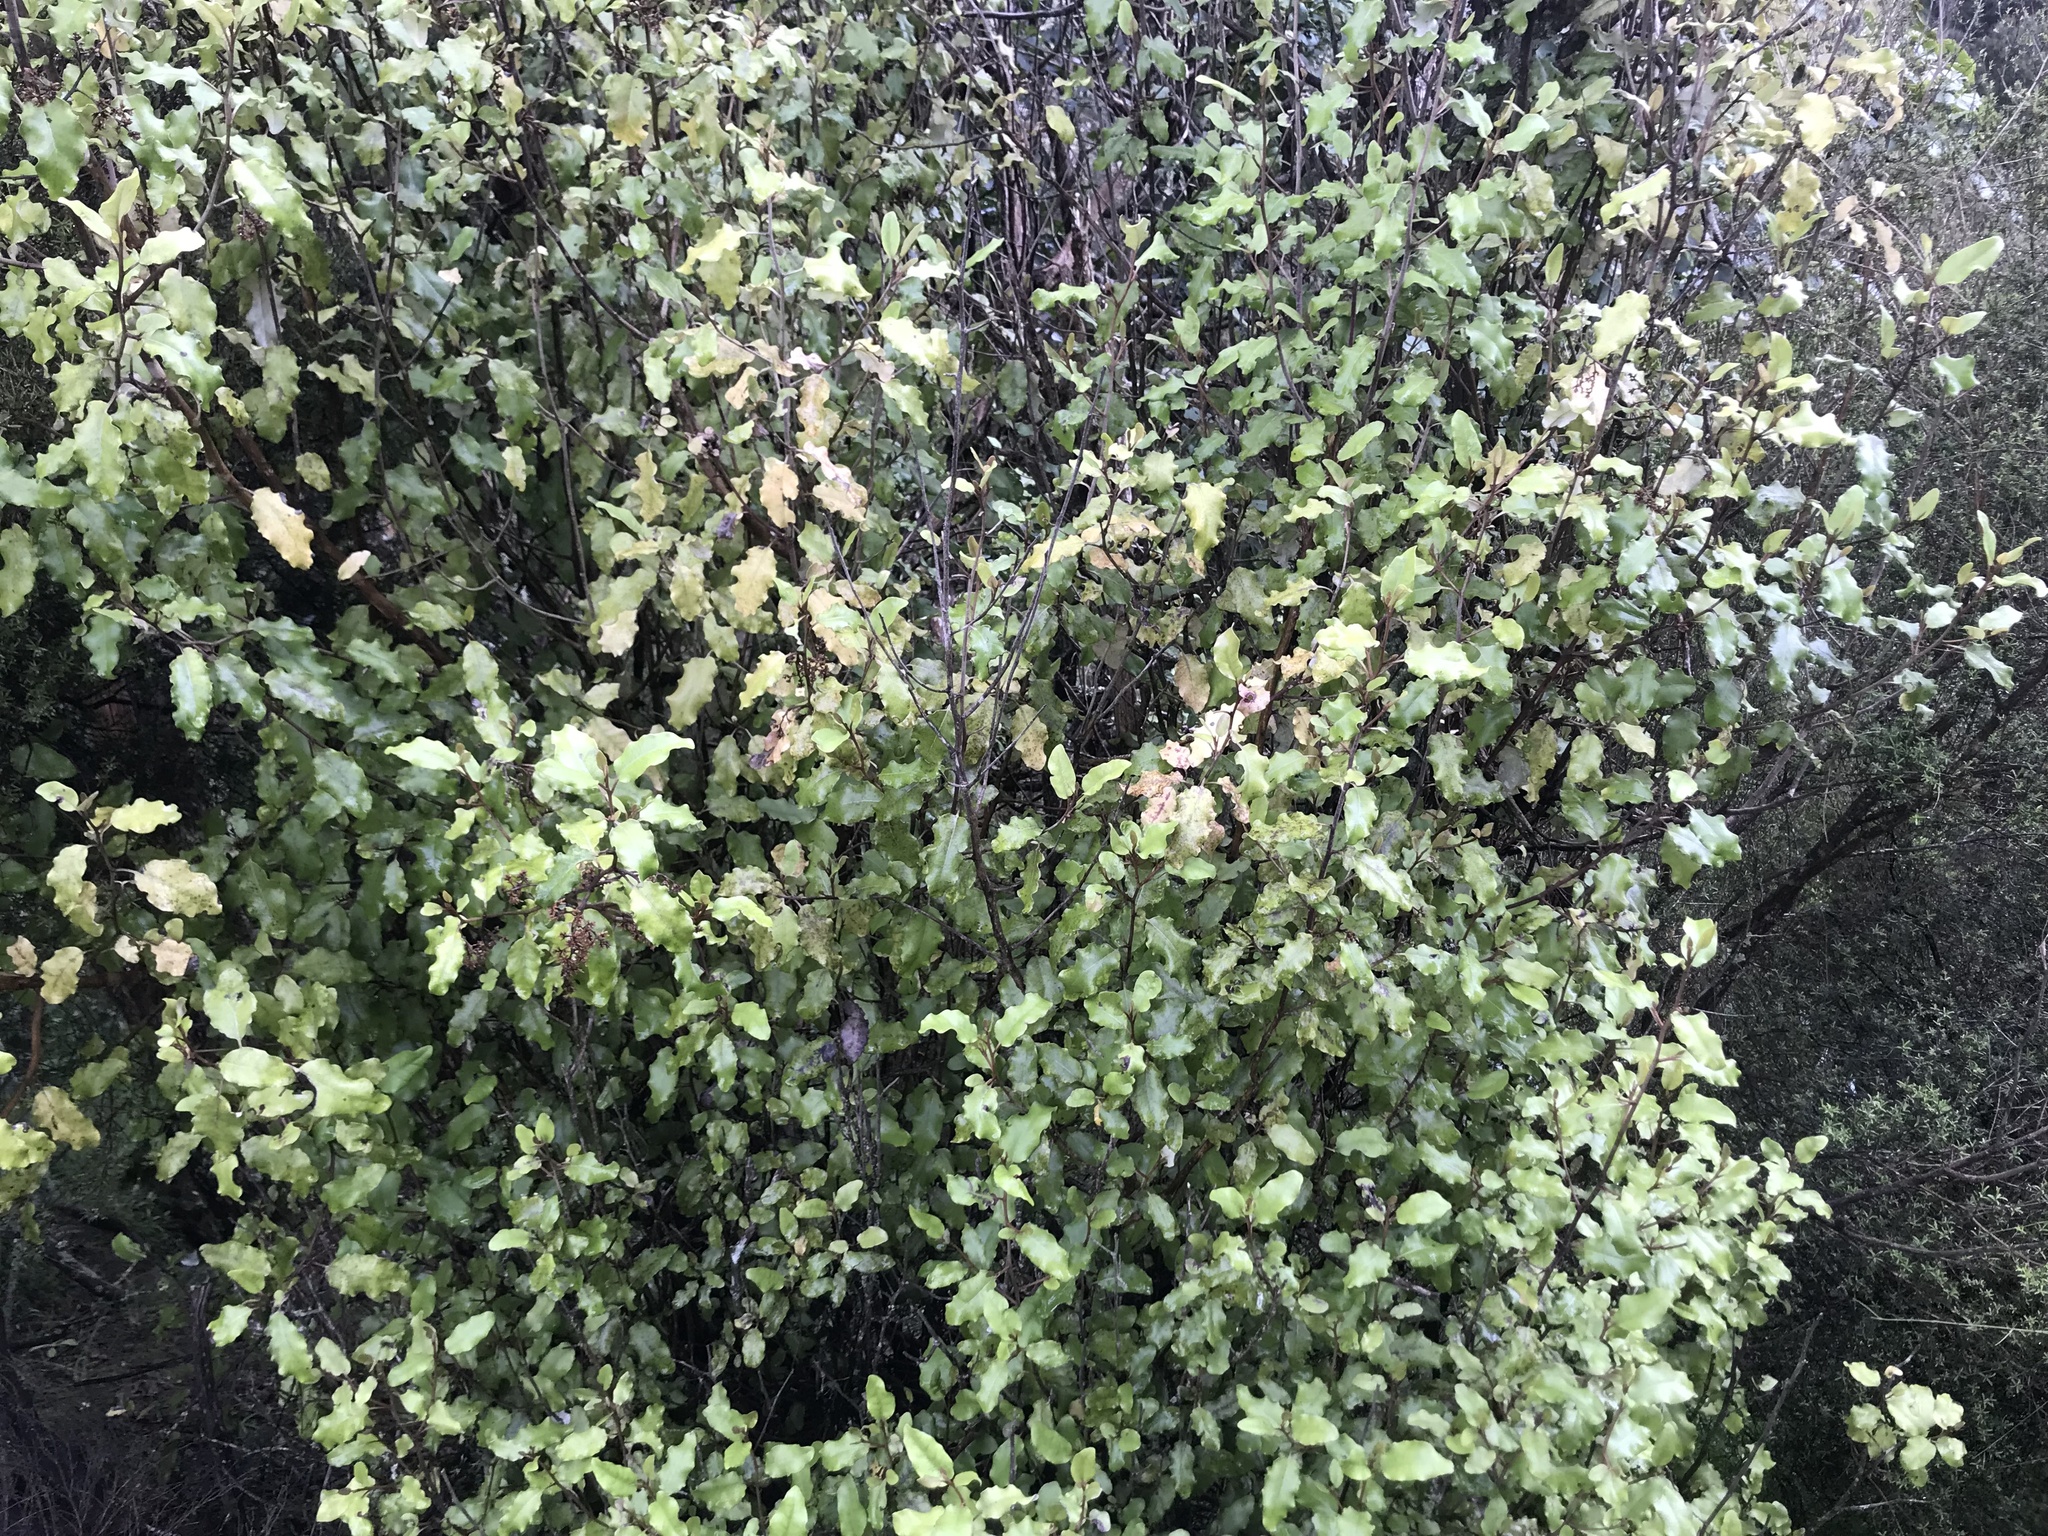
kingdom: Plantae
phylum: Tracheophyta
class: Magnoliopsida
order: Asterales
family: Asteraceae
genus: Olearia
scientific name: Olearia paniculata
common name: Akiraho
